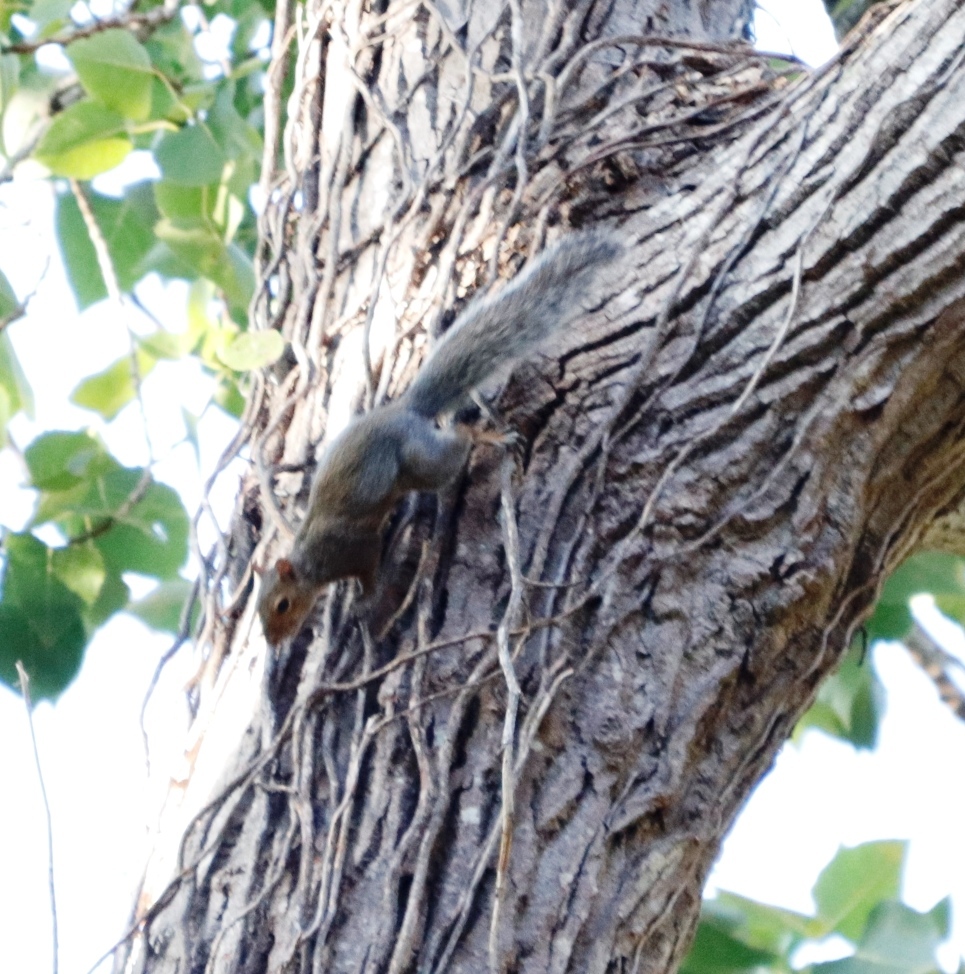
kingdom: Animalia
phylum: Chordata
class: Mammalia
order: Rodentia
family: Sciuridae
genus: Sciurus
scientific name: Sciurus carolinensis
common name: Eastern gray squirrel
